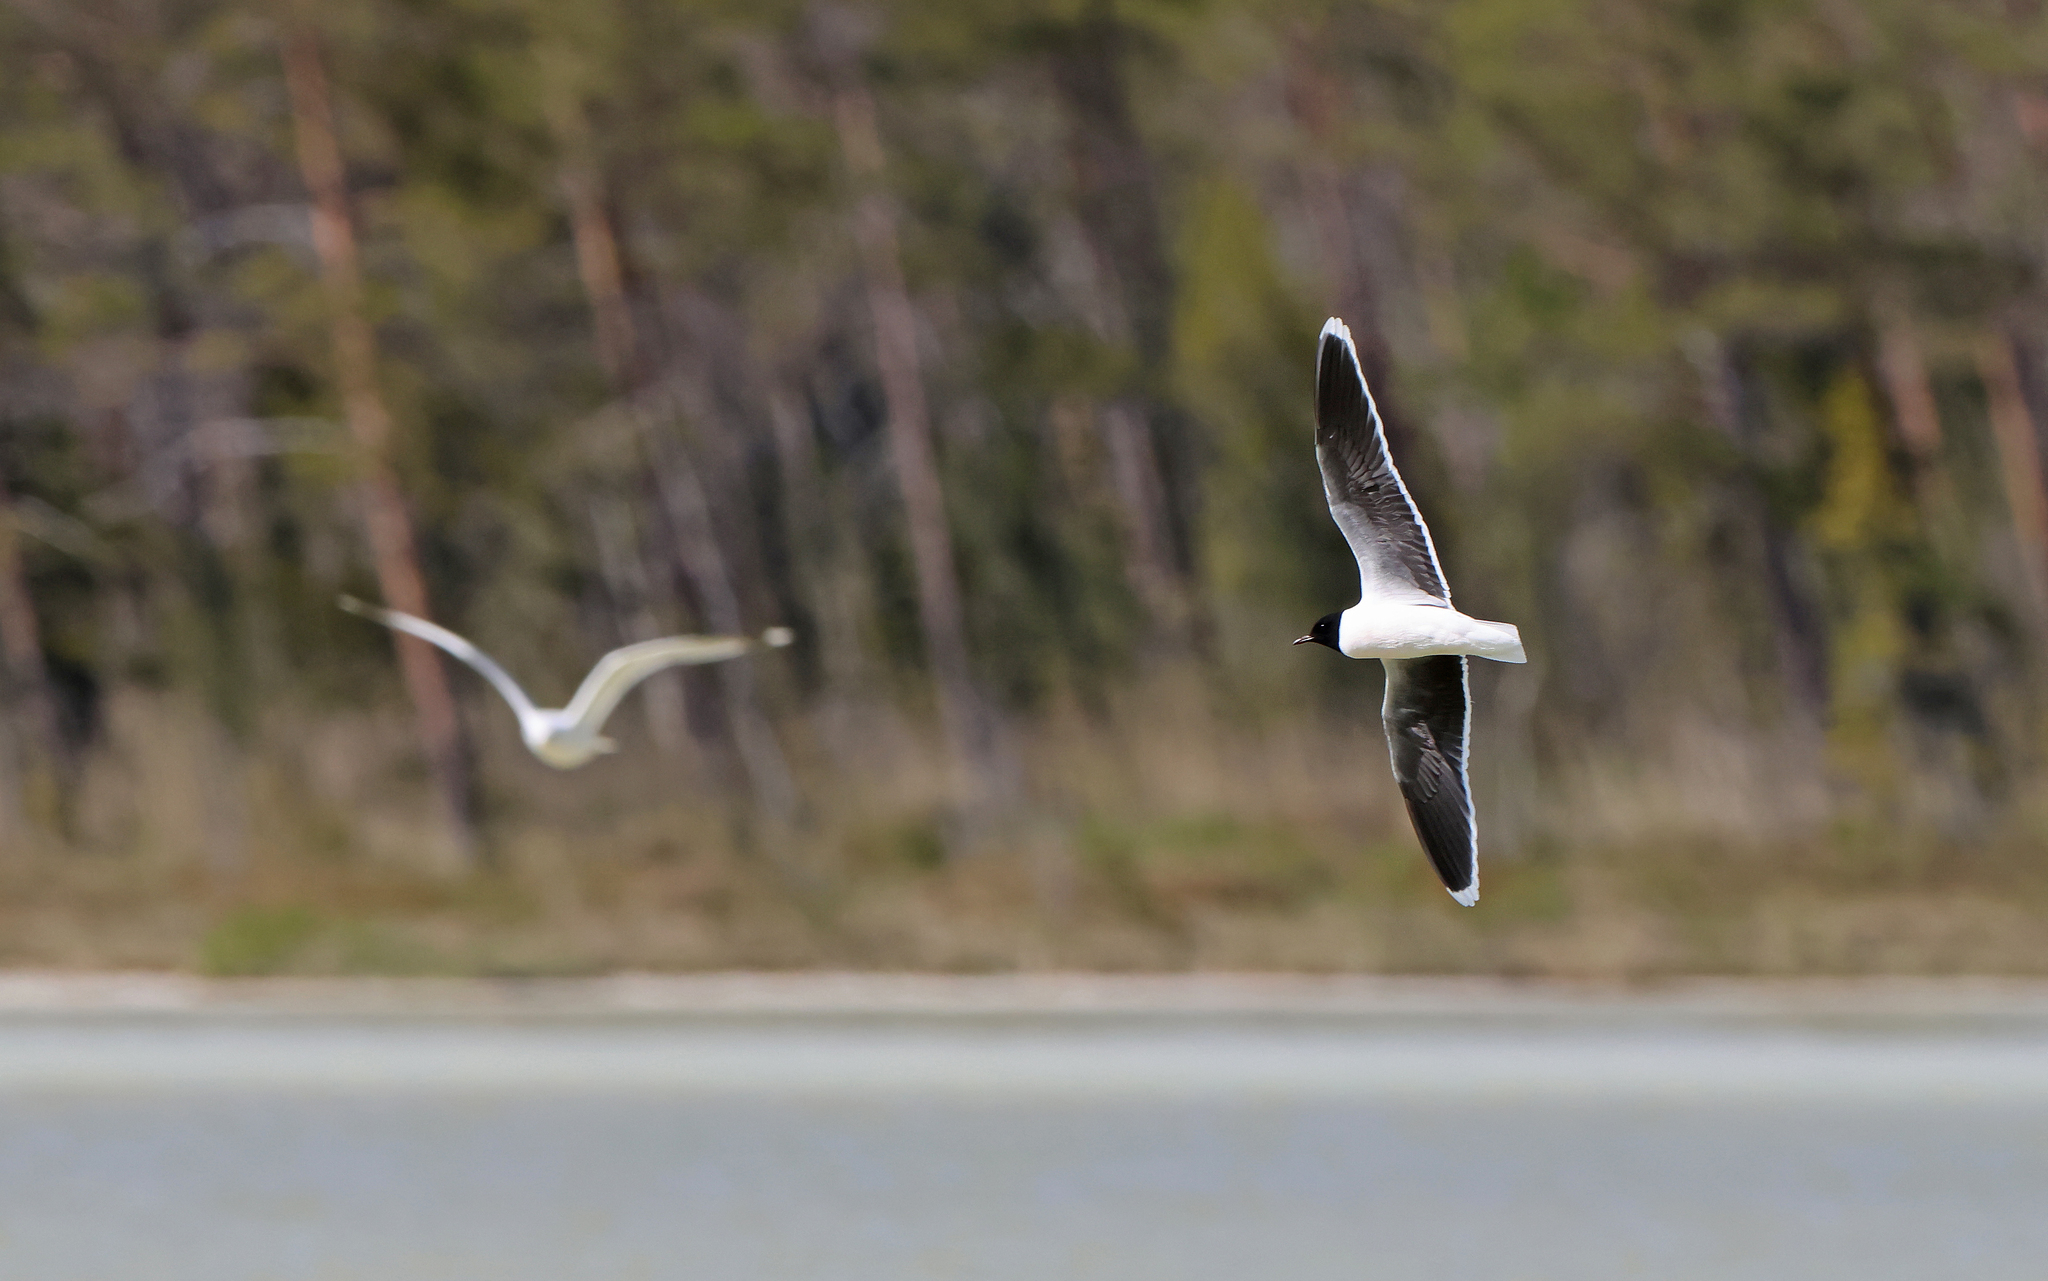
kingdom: Animalia
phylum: Chordata
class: Aves
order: Charadriiformes
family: Laridae
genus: Hydrocoloeus
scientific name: Hydrocoloeus minutus
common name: Little gull
